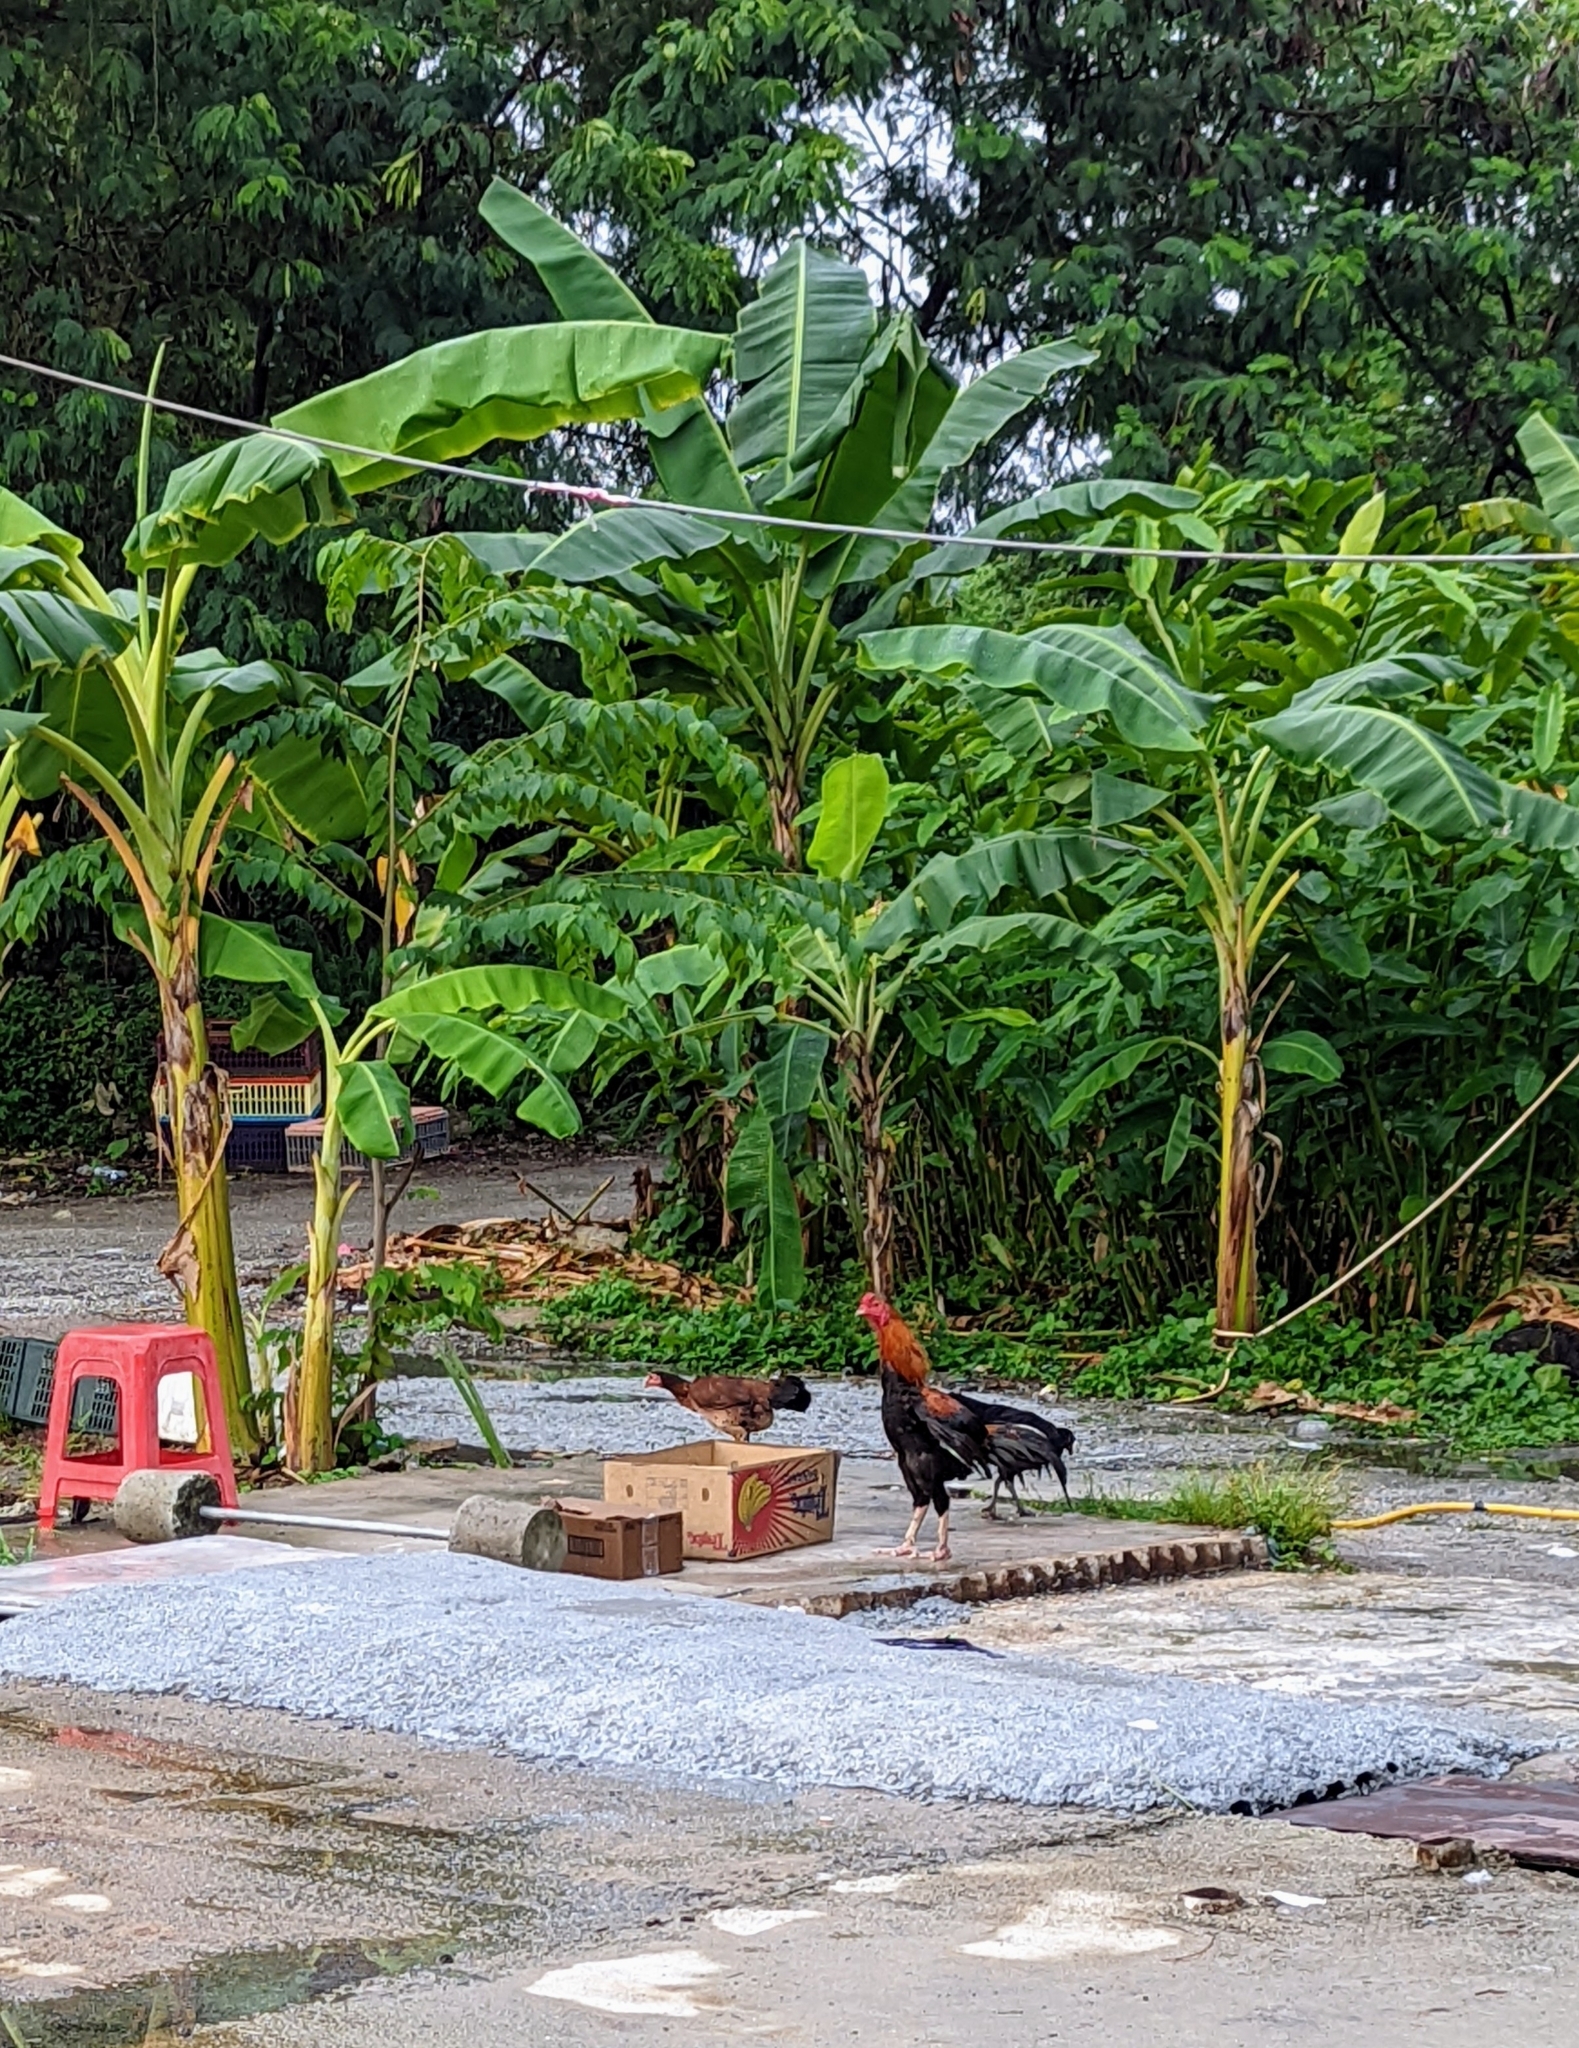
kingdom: Animalia
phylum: Chordata
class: Aves
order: Galliformes
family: Phasianidae
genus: Gallus
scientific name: Gallus gallus
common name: Red junglefowl
